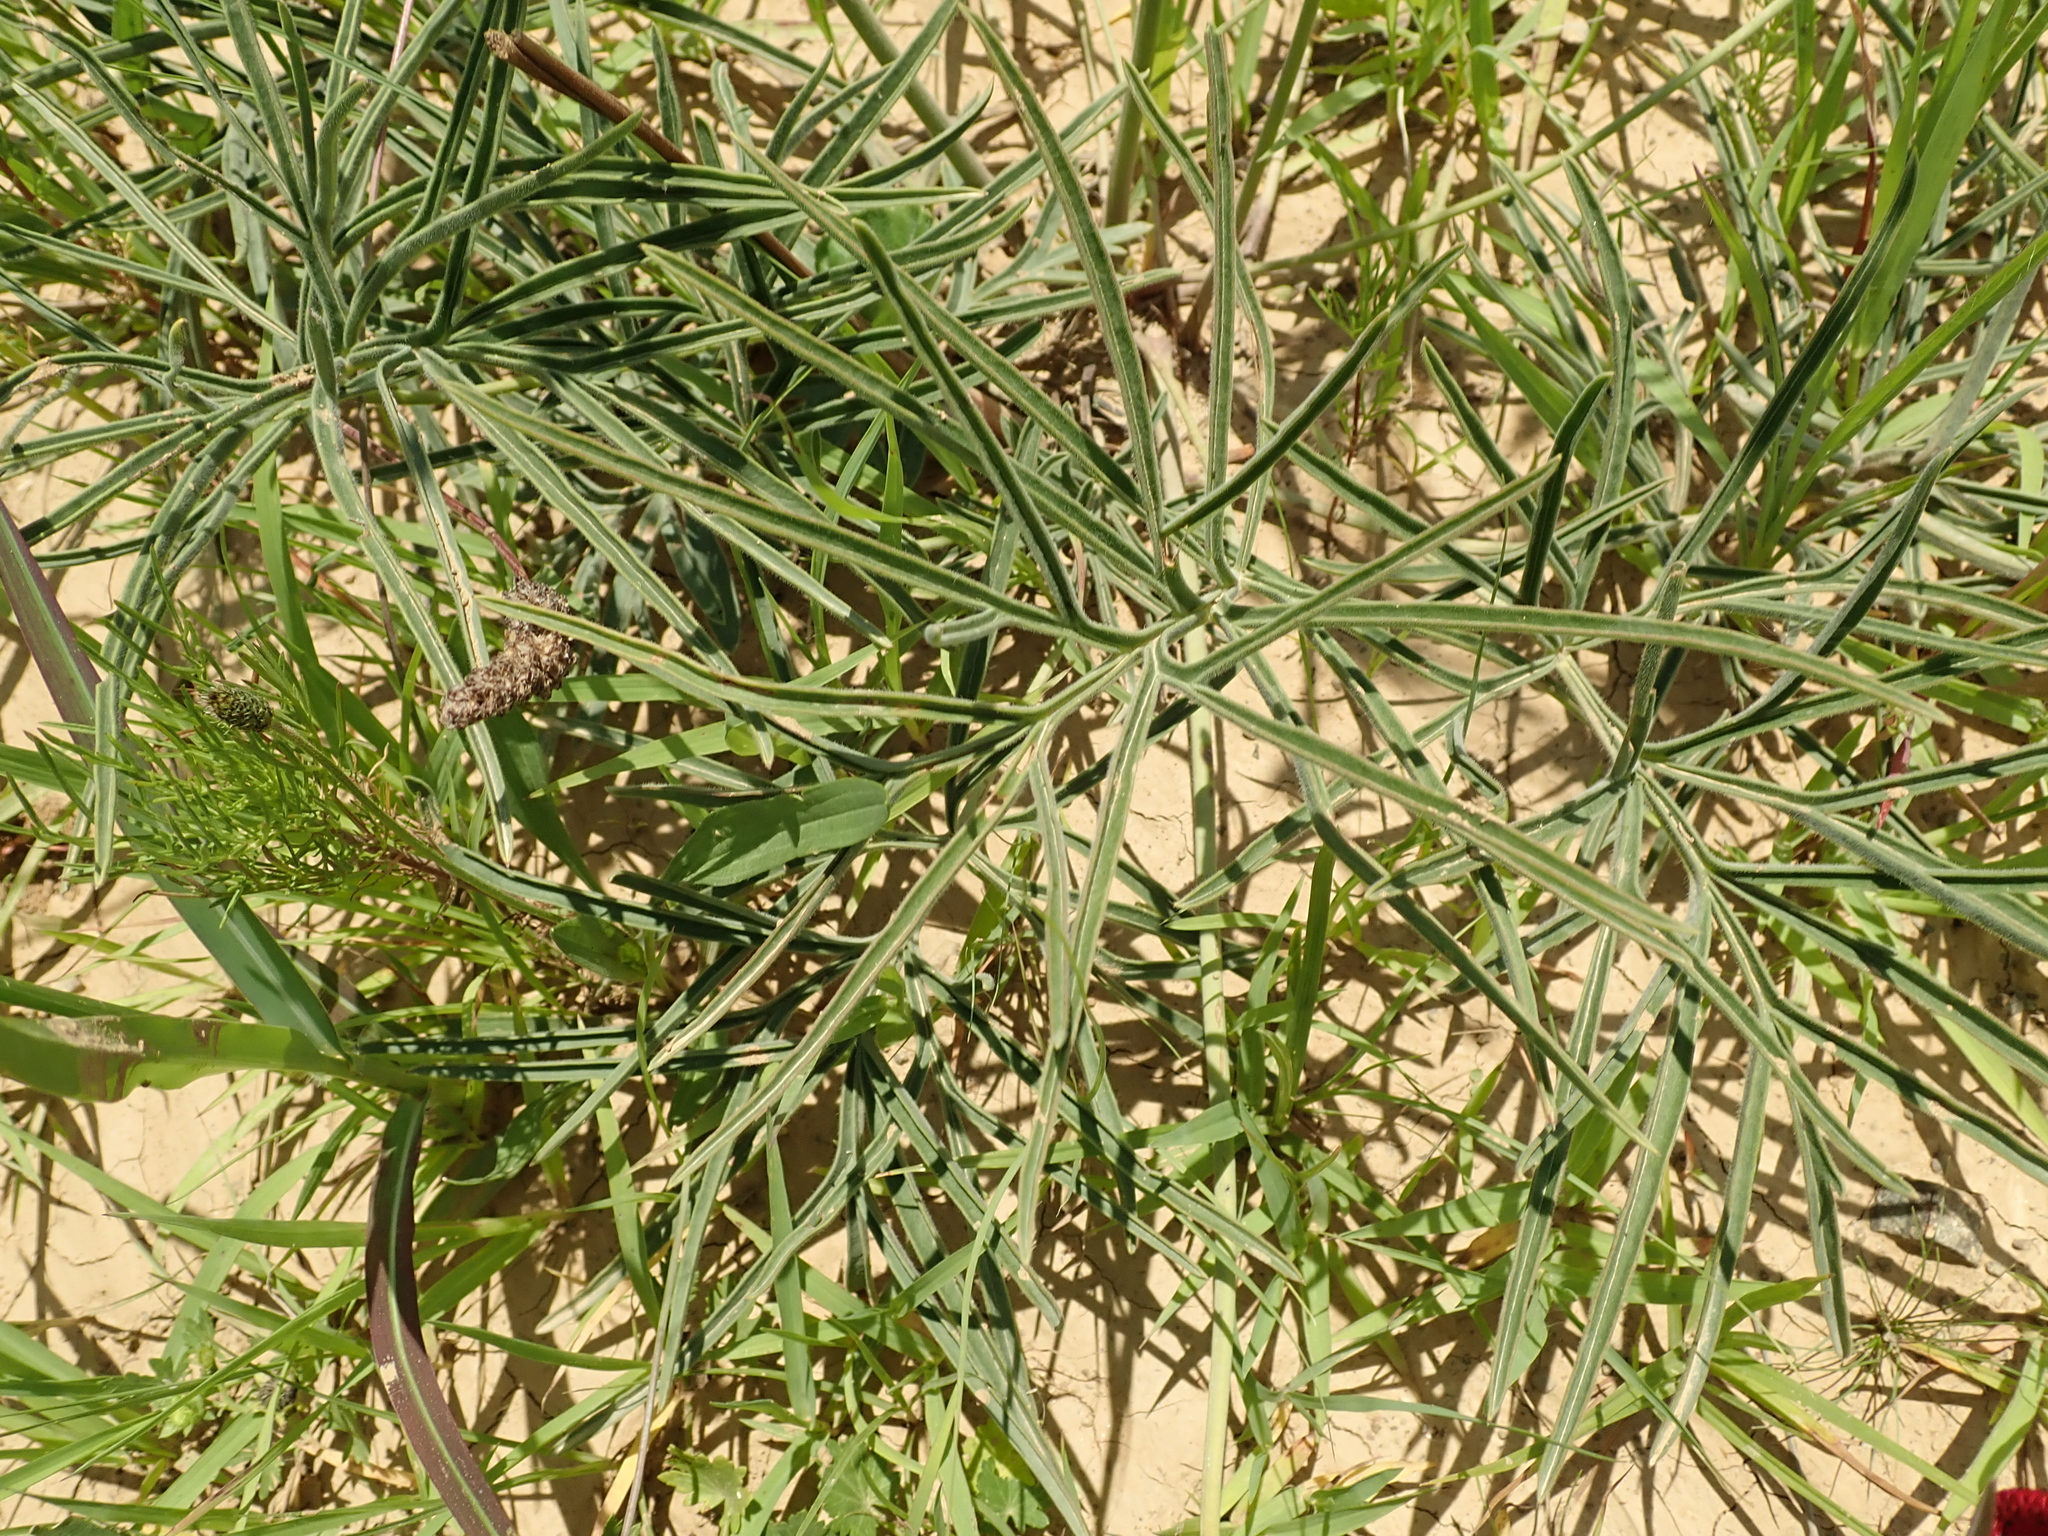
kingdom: Plantae
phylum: Tracheophyta
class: Magnoliopsida
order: Geraniales
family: Geraniaceae
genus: Pelargonium
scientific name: Pelargonium luridum
